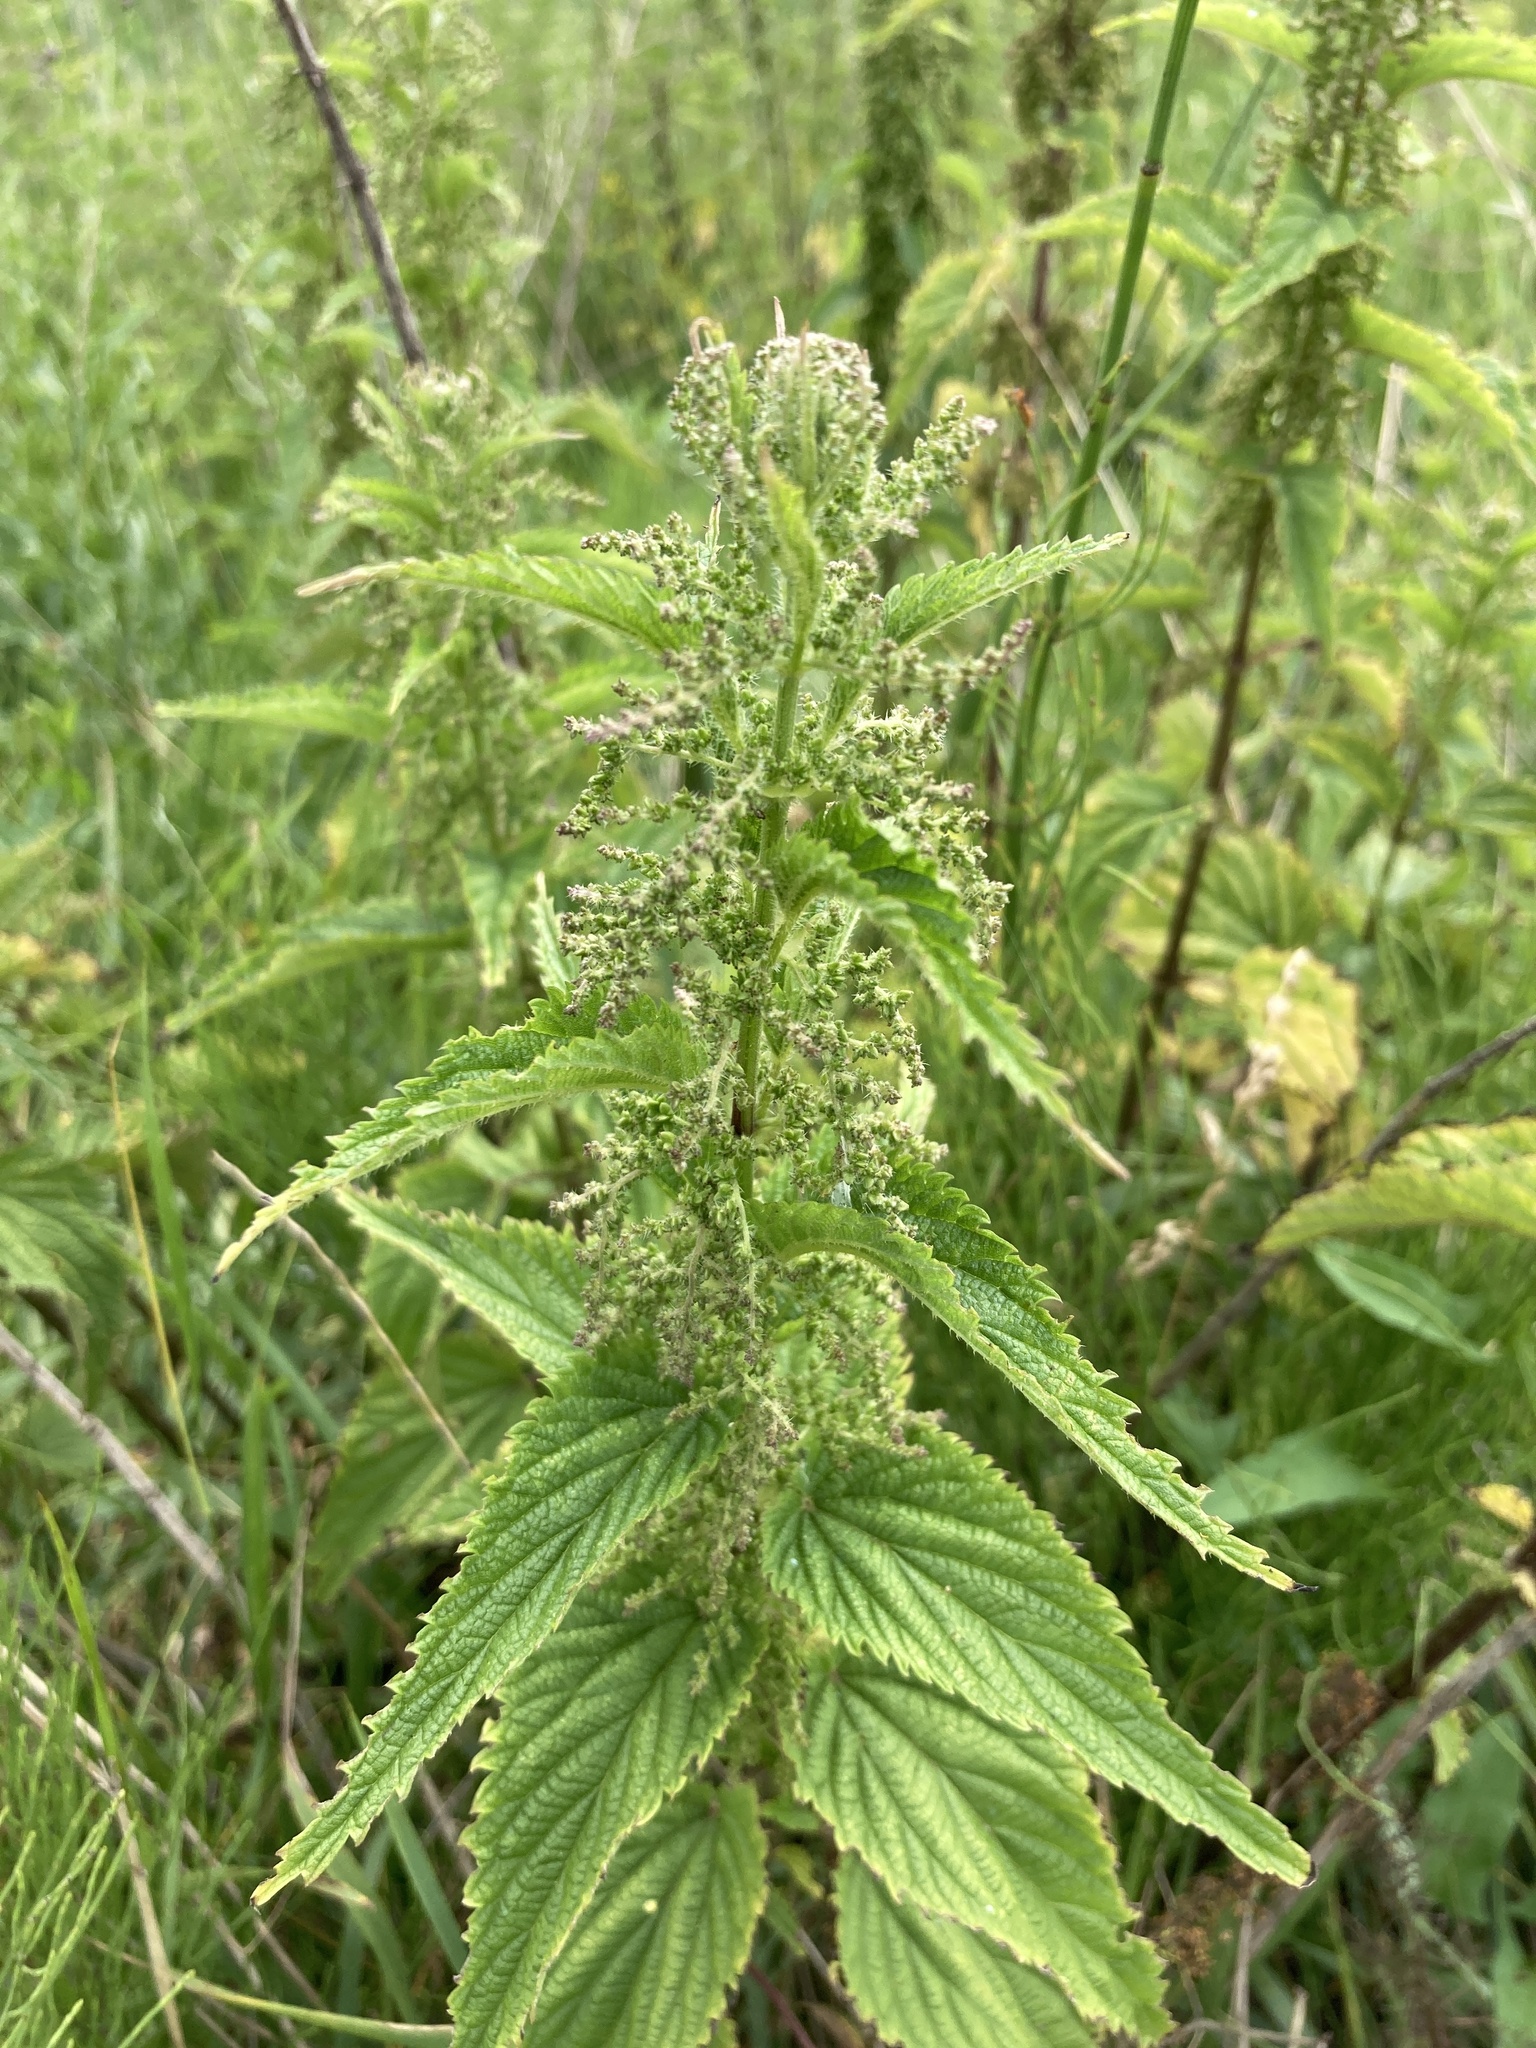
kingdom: Plantae
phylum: Tracheophyta
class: Magnoliopsida
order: Rosales
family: Urticaceae
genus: Urtica
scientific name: Urtica dioica
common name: Common nettle
